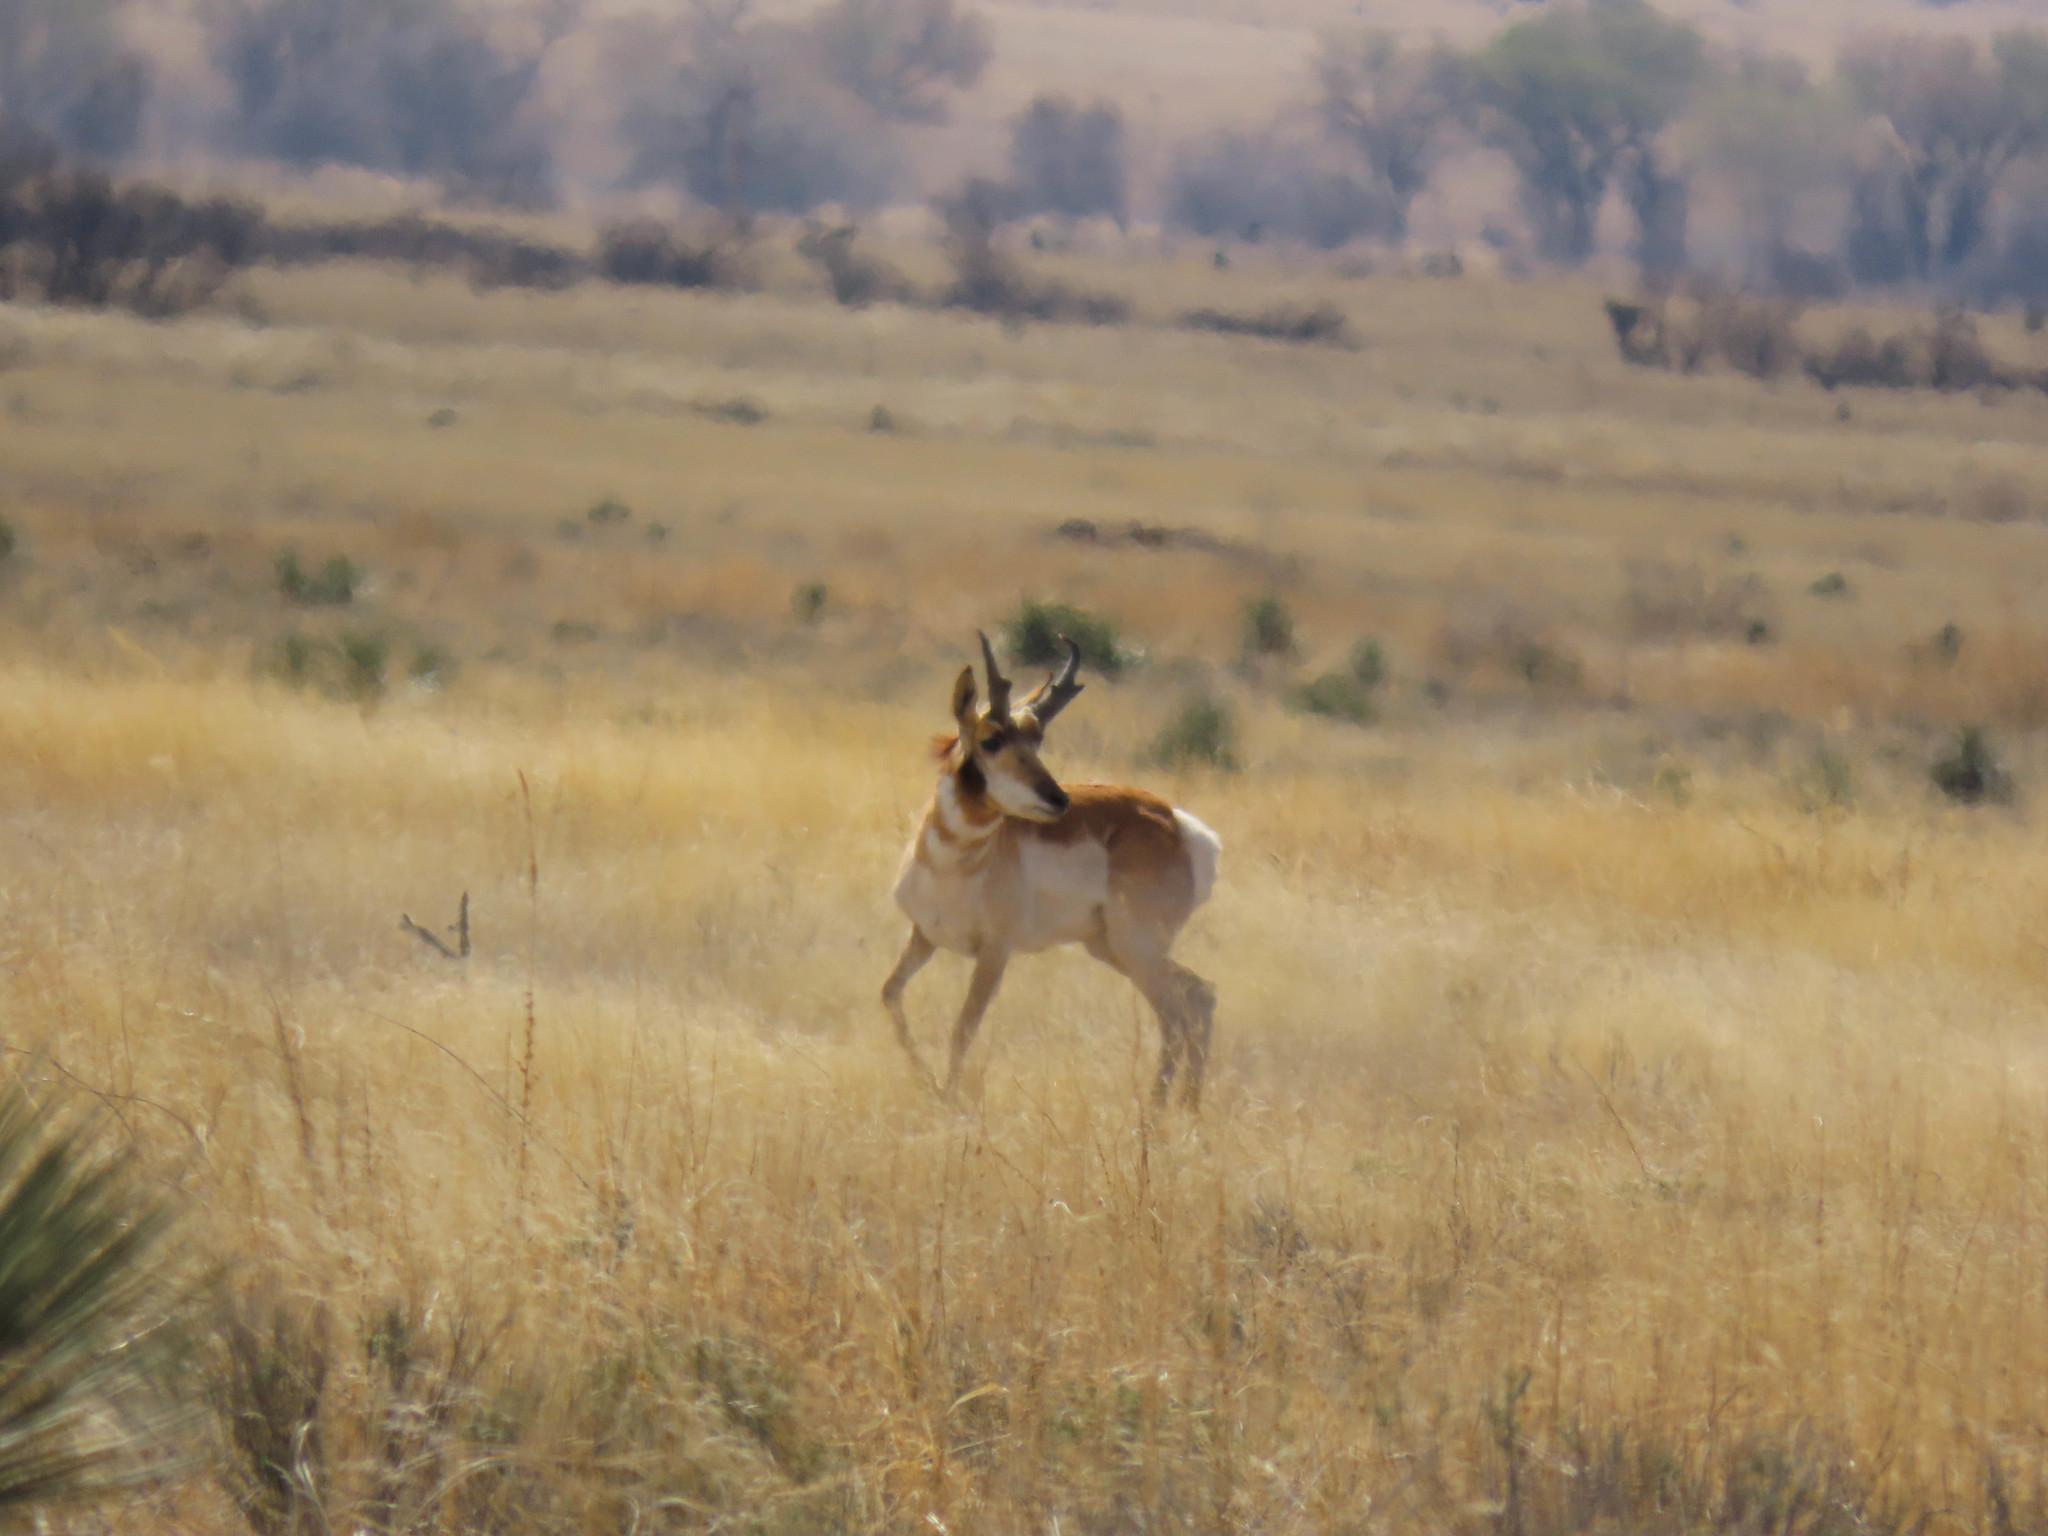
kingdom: Animalia
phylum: Chordata
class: Mammalia
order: Artiodactyla
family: Antilocapridae
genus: Antilocapra
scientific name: Antilocapra americana
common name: Pronghorn
